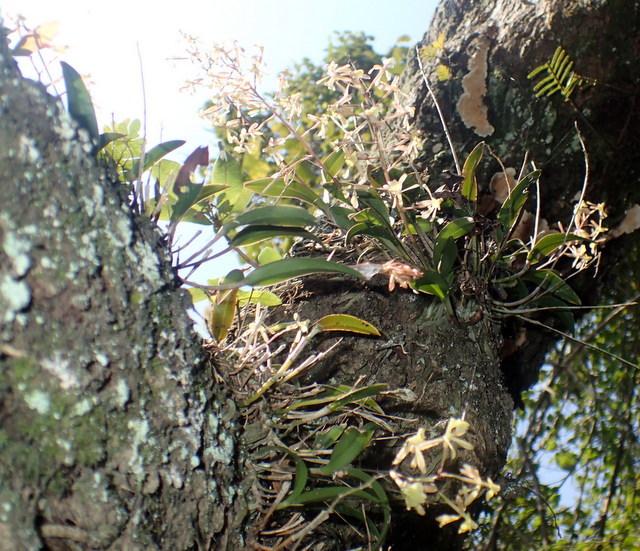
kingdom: Plantae
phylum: Tracheophyta
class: Liliopsida
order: Asparagales
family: Orchidaceae
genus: Epidendrum
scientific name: Epidendrum conopseum
